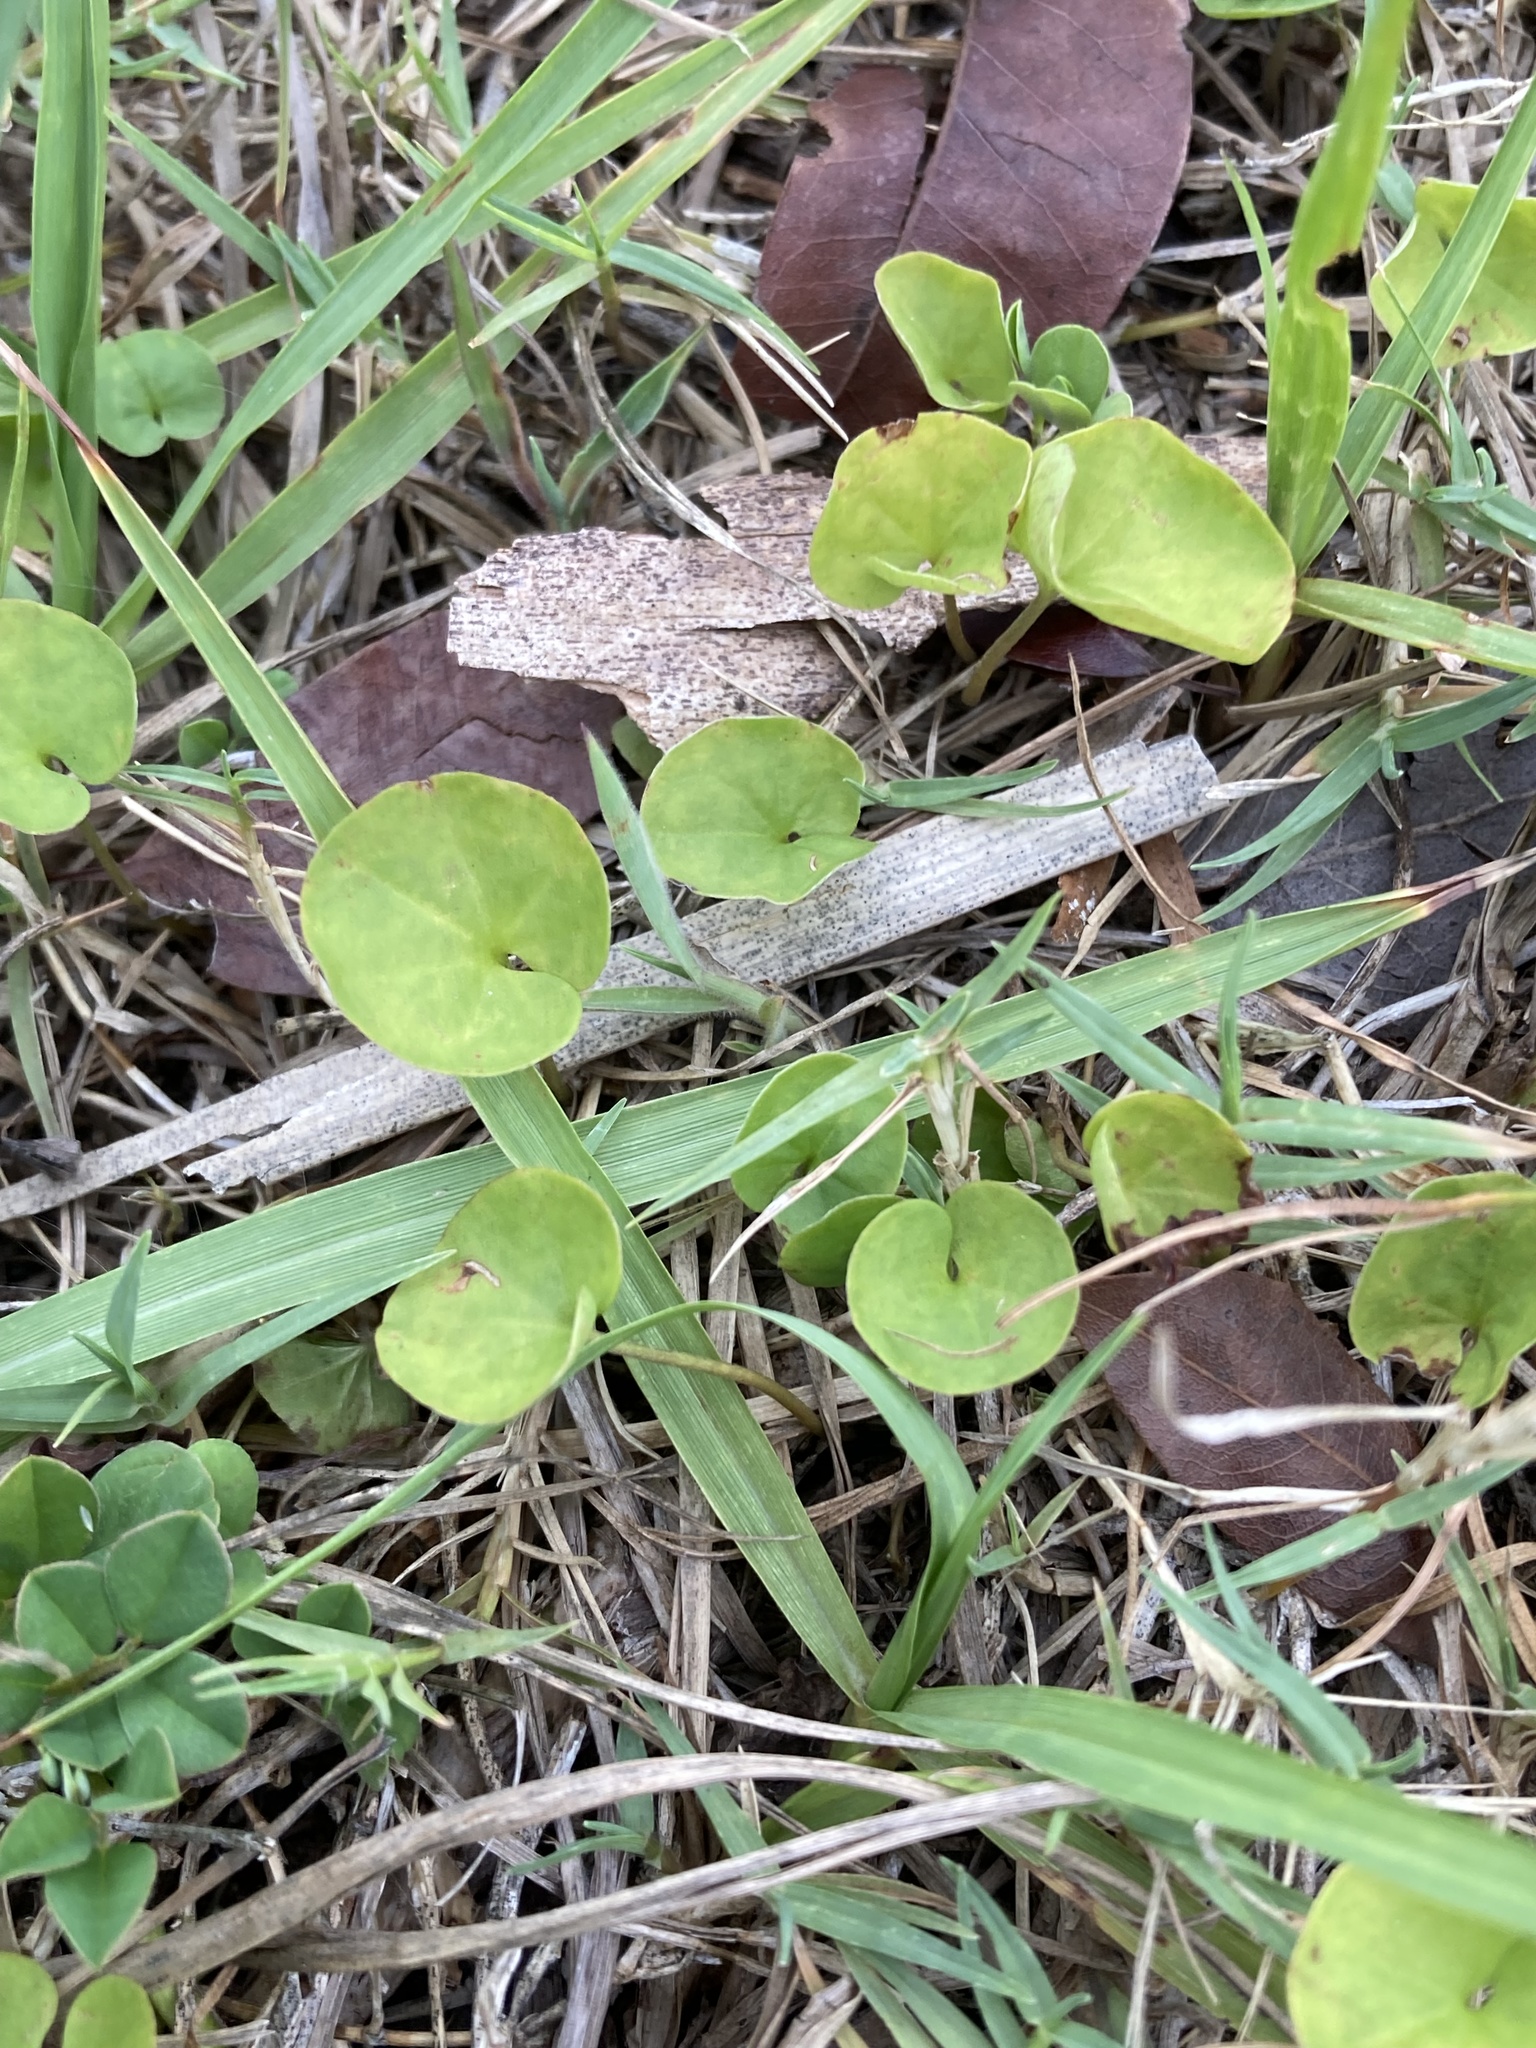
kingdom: Plantae
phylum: Tracheophyta
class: Magnoliopsida
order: Solanales
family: Convolvulaceae
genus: Dichondra
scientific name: Dichondra carolinensis
